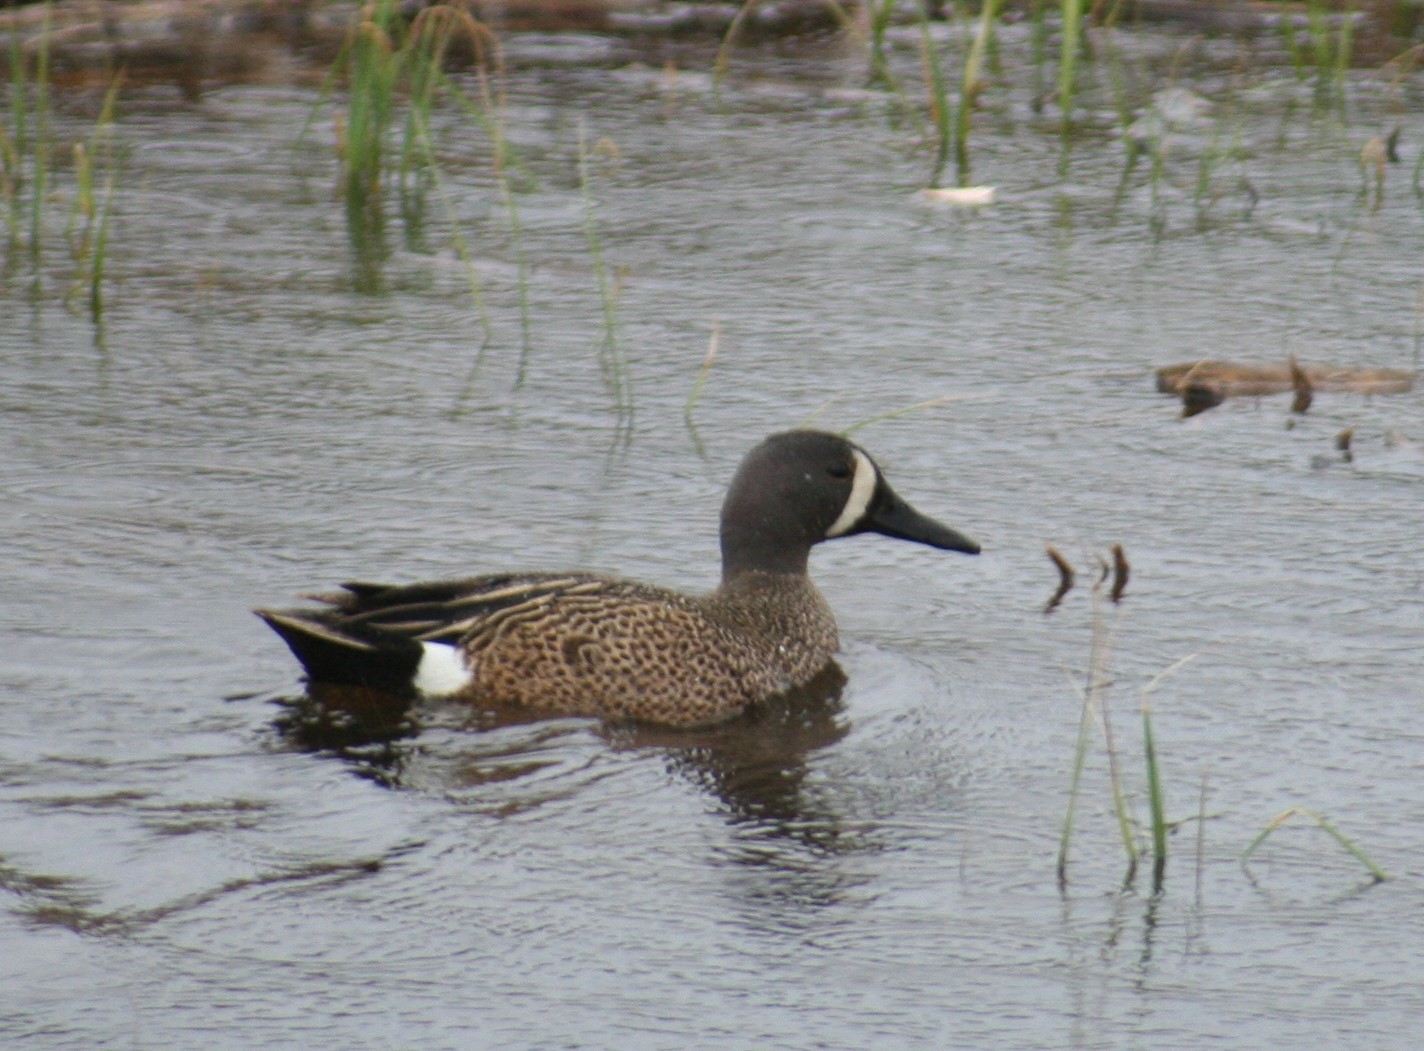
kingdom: Animalia
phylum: Chordata
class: Aves
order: Anseriformes
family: Anatidae
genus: Spatula
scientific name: Spatula discors
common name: Blue-winged teal
